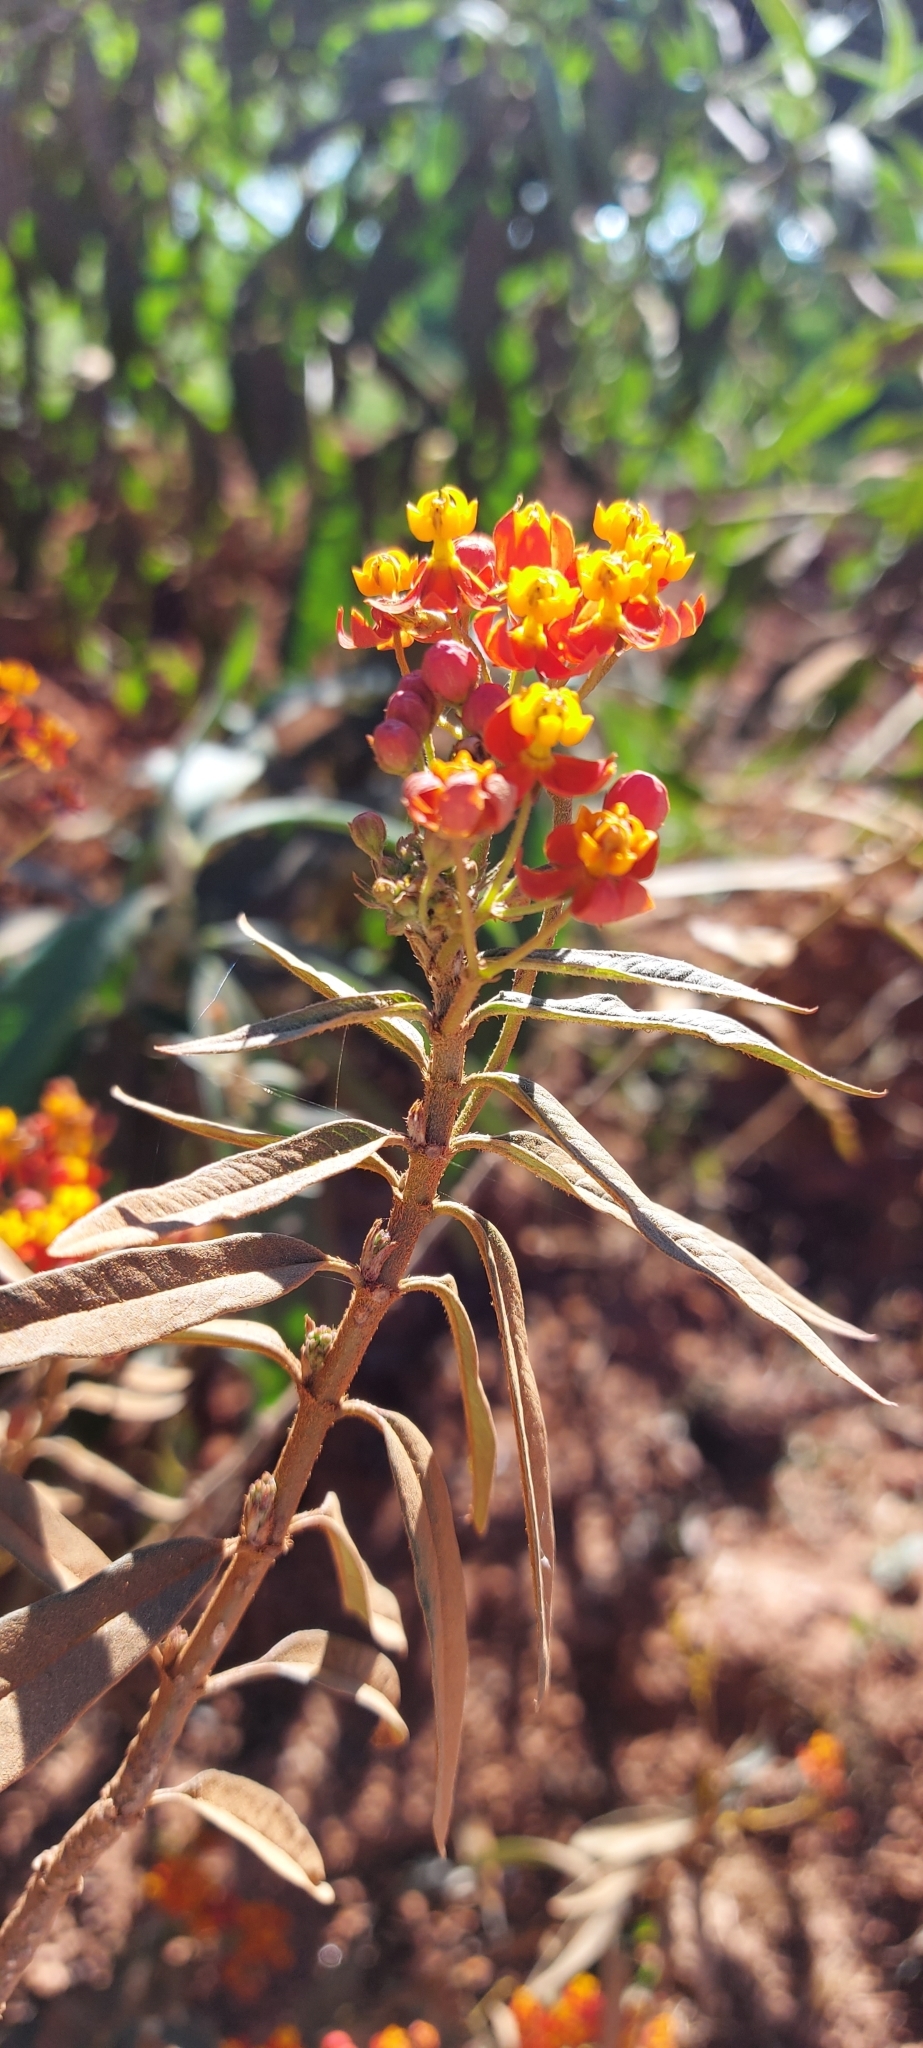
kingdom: Plantae
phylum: Tracheophyta
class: Magnoliopsida
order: Gentianales
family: Apocynaceae
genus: Asclepias
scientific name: Asclepias curassavica
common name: Bloodflower
